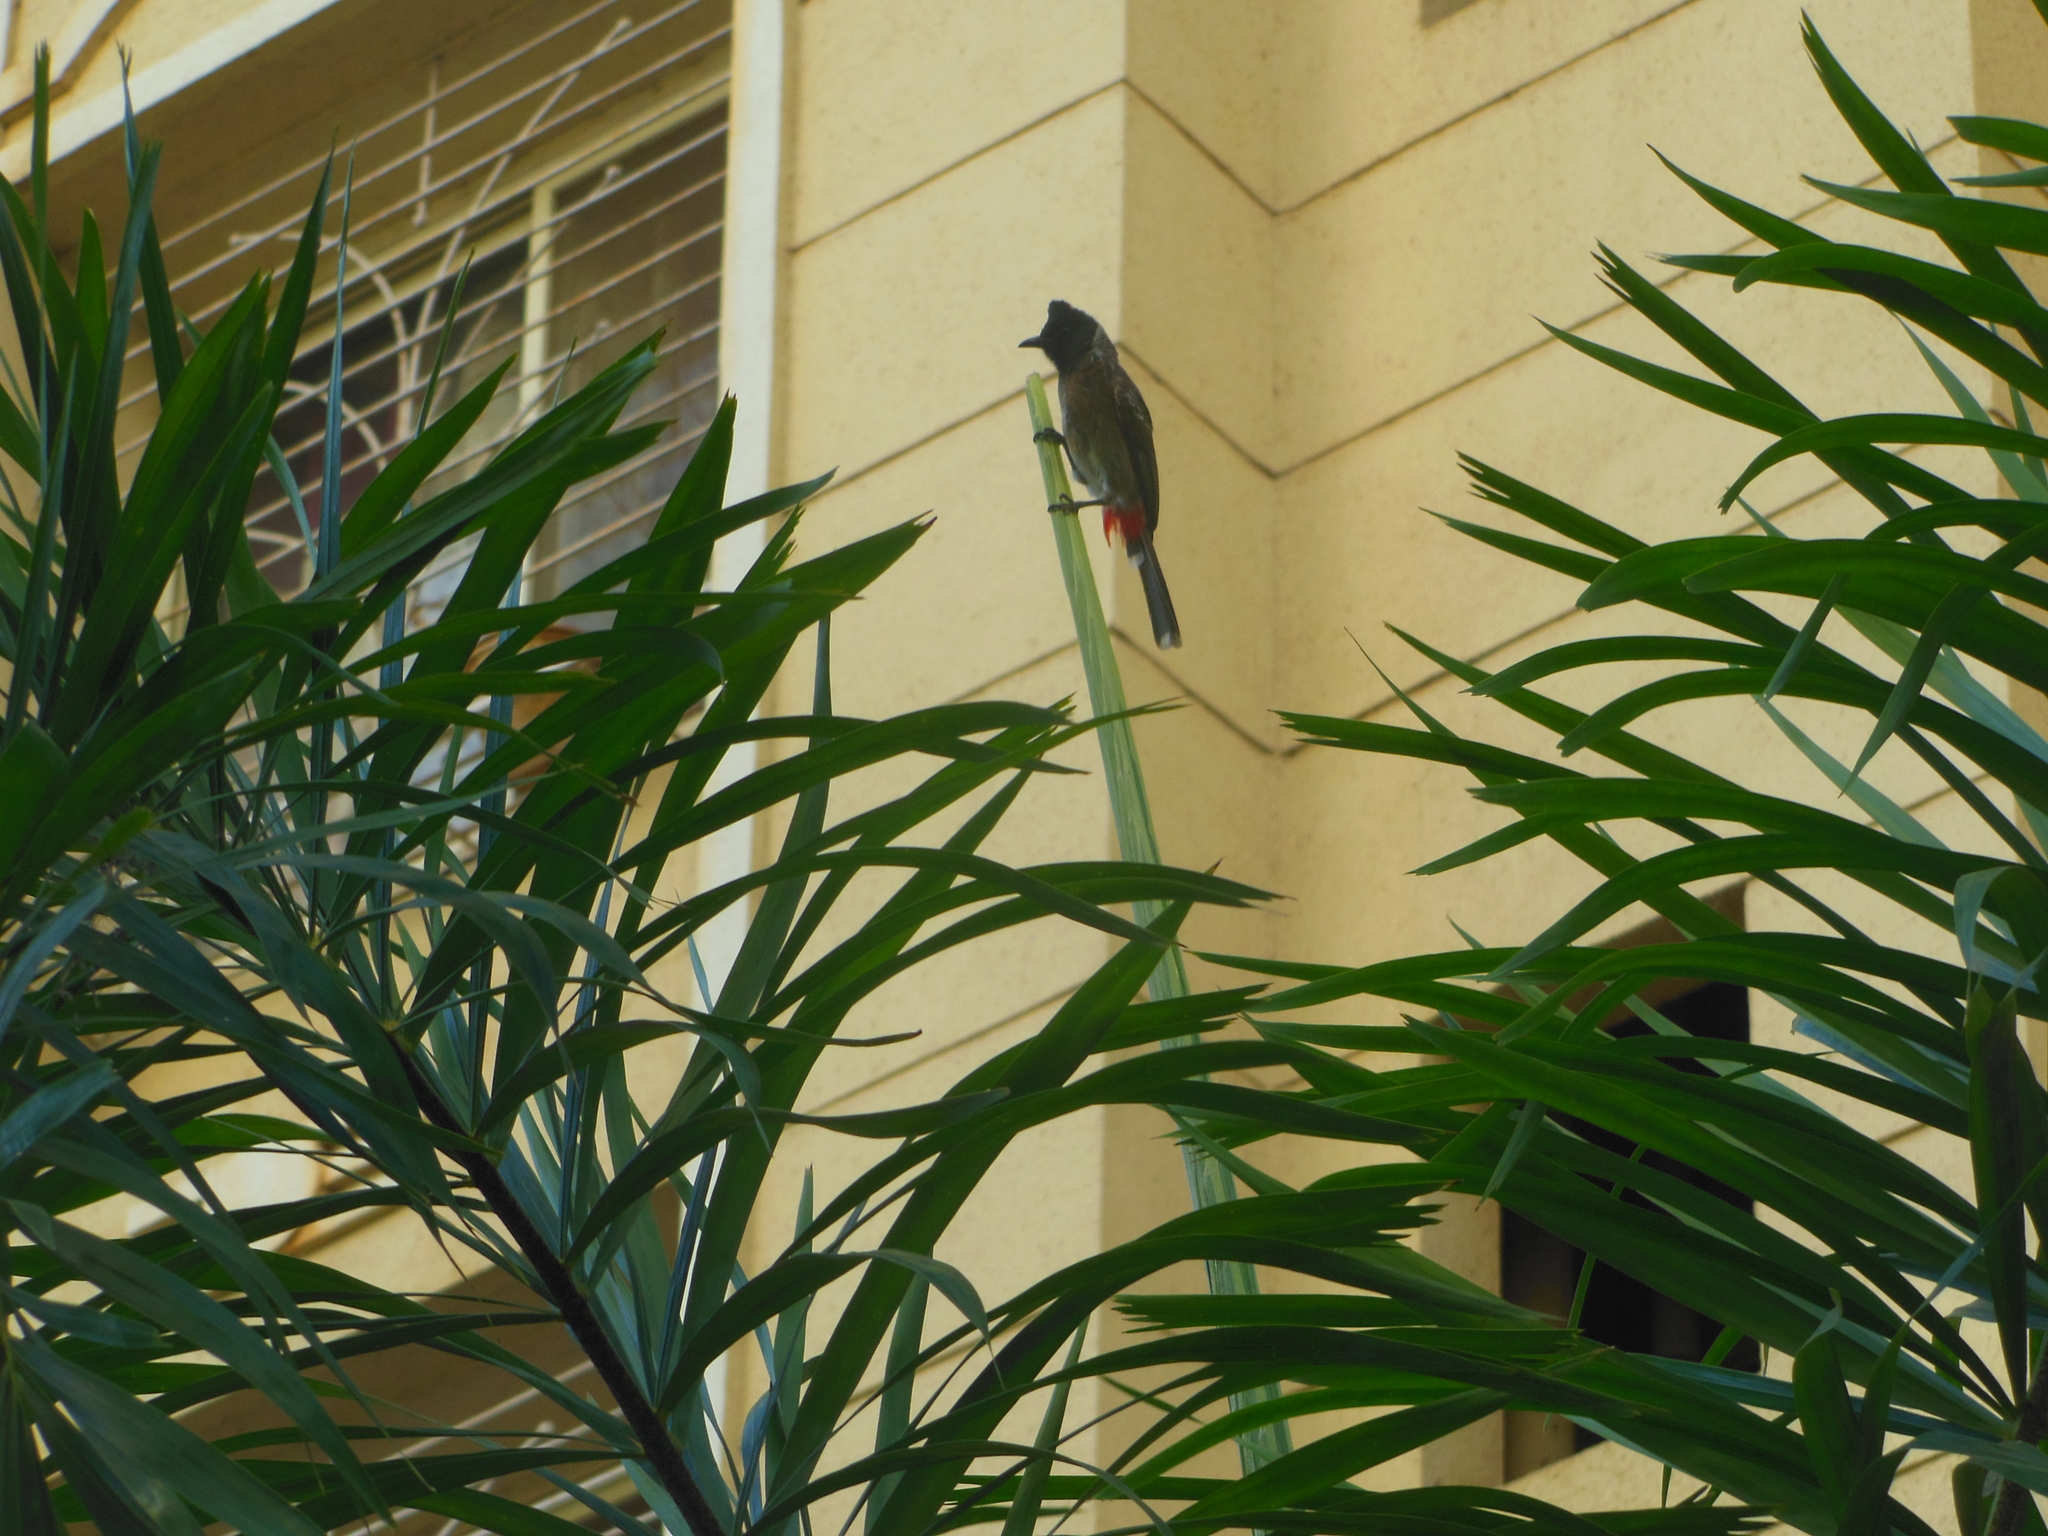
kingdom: Animalia
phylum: Chordata
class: Aves
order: Passeriformes
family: Pycnonotidae
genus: Pycnonotus
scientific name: Pycnonotus cafer
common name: Red-vented bulbul
